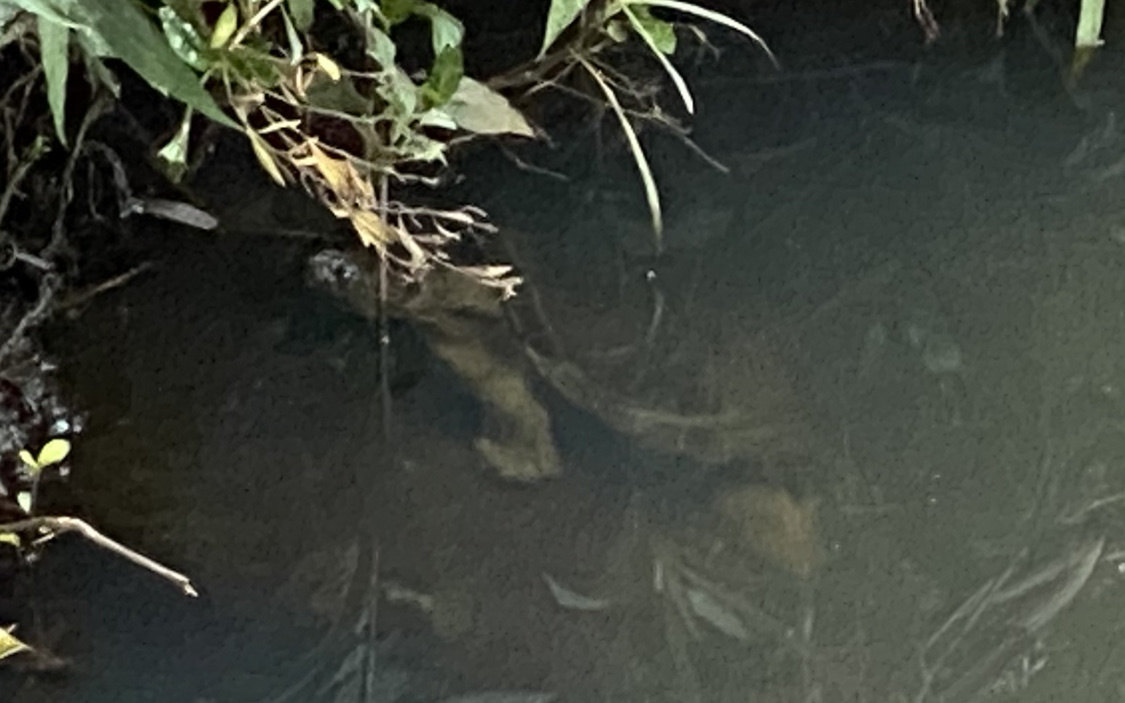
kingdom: Animalia
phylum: Chordata
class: Testudines
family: Chelidae
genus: Myuchelys
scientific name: Myuchelys latisternum
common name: Serrated snapping turtle
